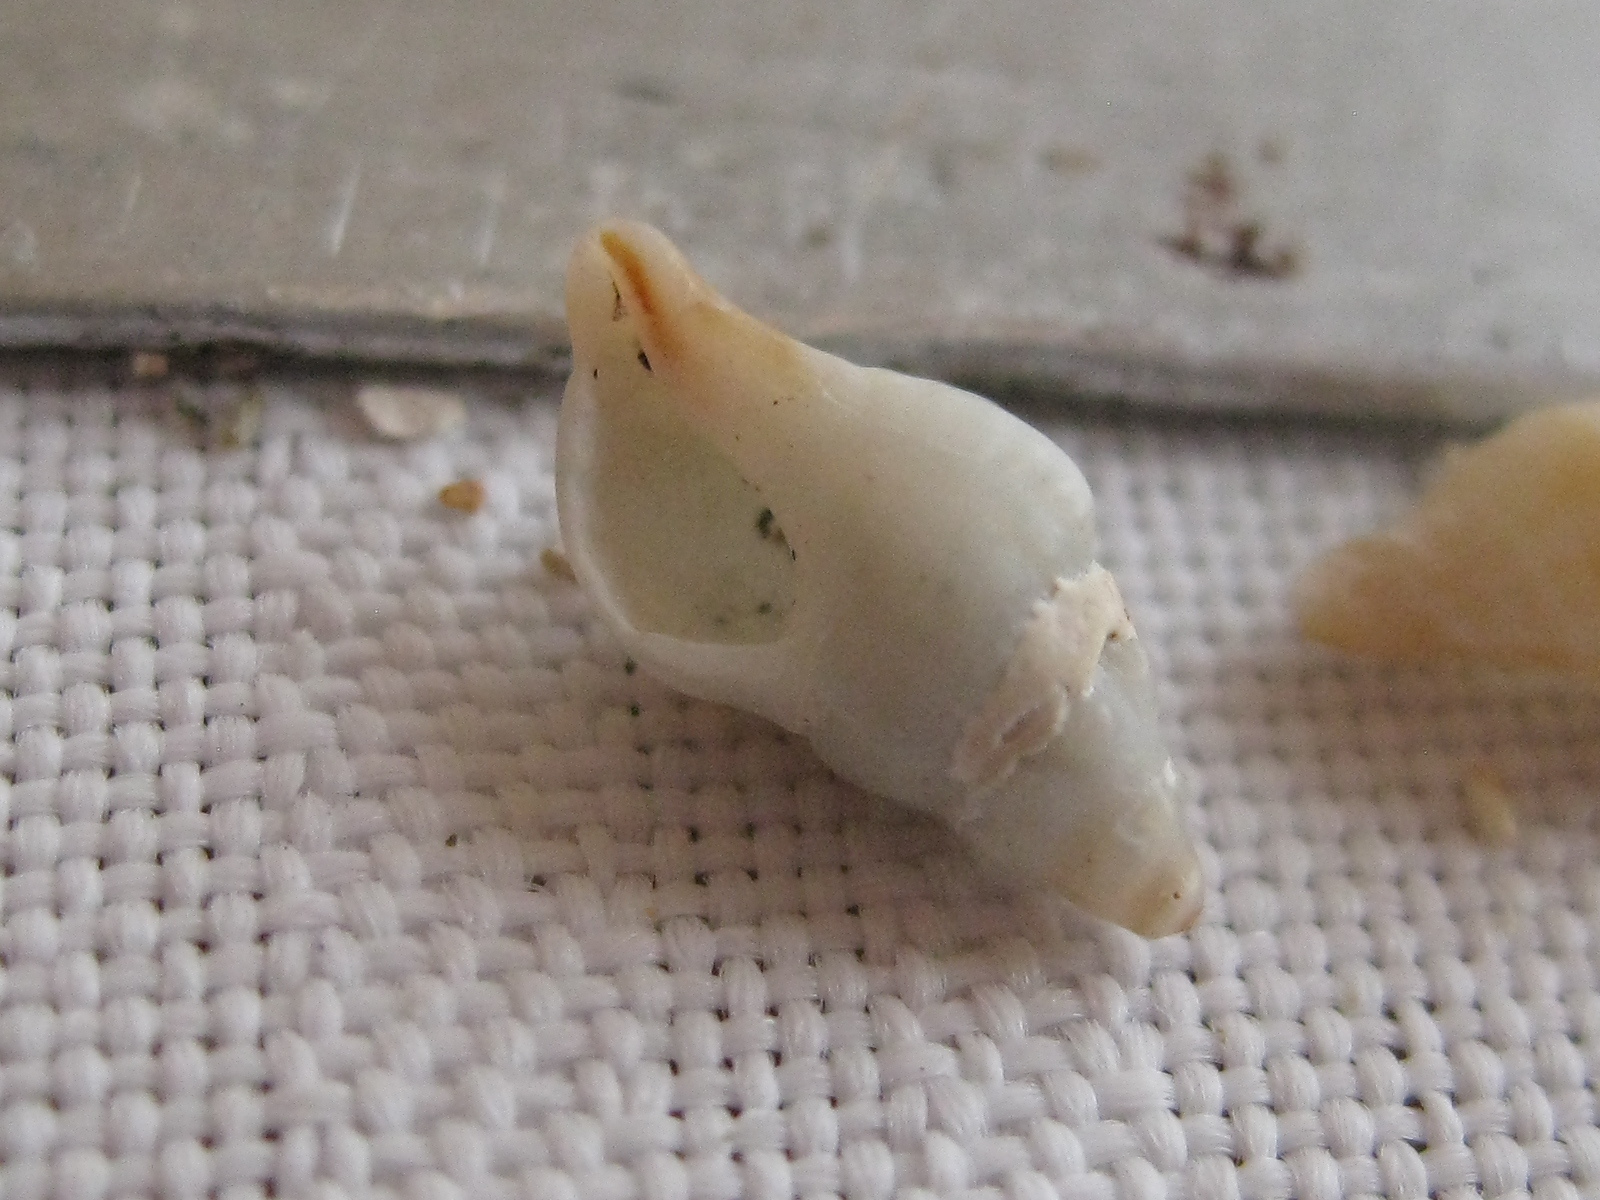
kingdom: Animalia
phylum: Mollusca
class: Gastropoda
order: Neogastropoda
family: Muricidae
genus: Axymene
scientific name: Axymene
